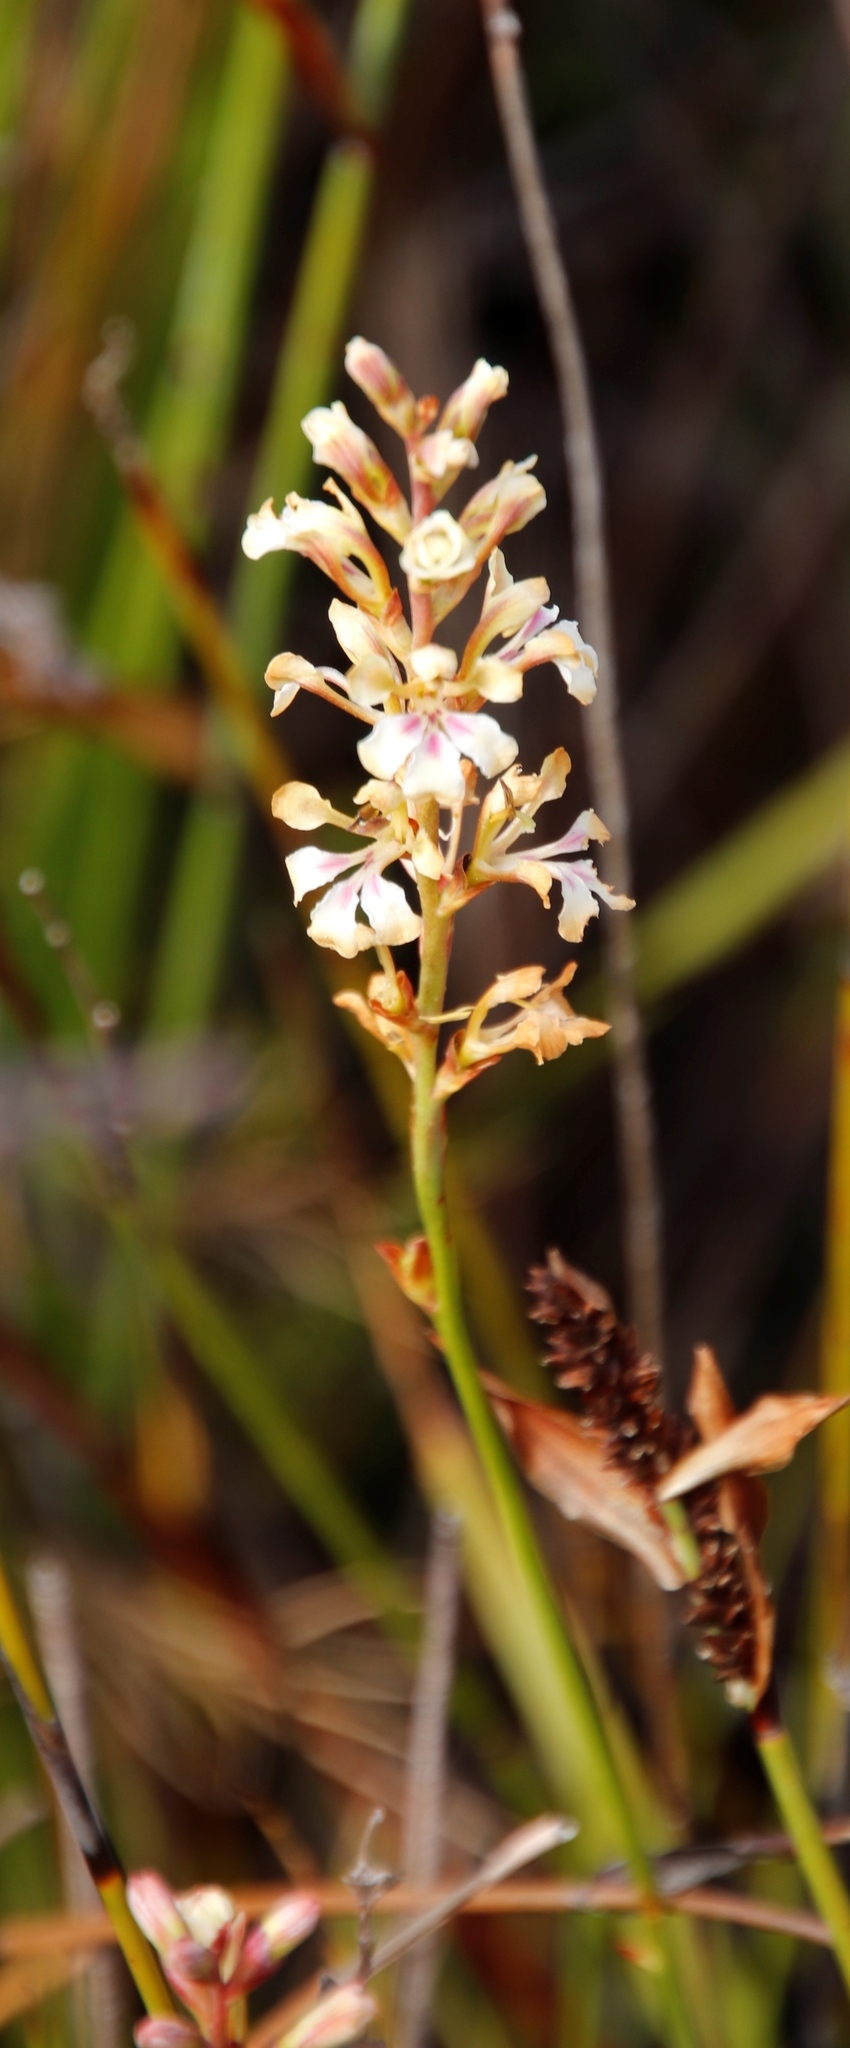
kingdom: Plantae
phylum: Tracheophyta
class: Liliopsida
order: Asparagales
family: Iridaceae
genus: Tritoniopsis
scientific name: Tritoniopsis unguicularis
